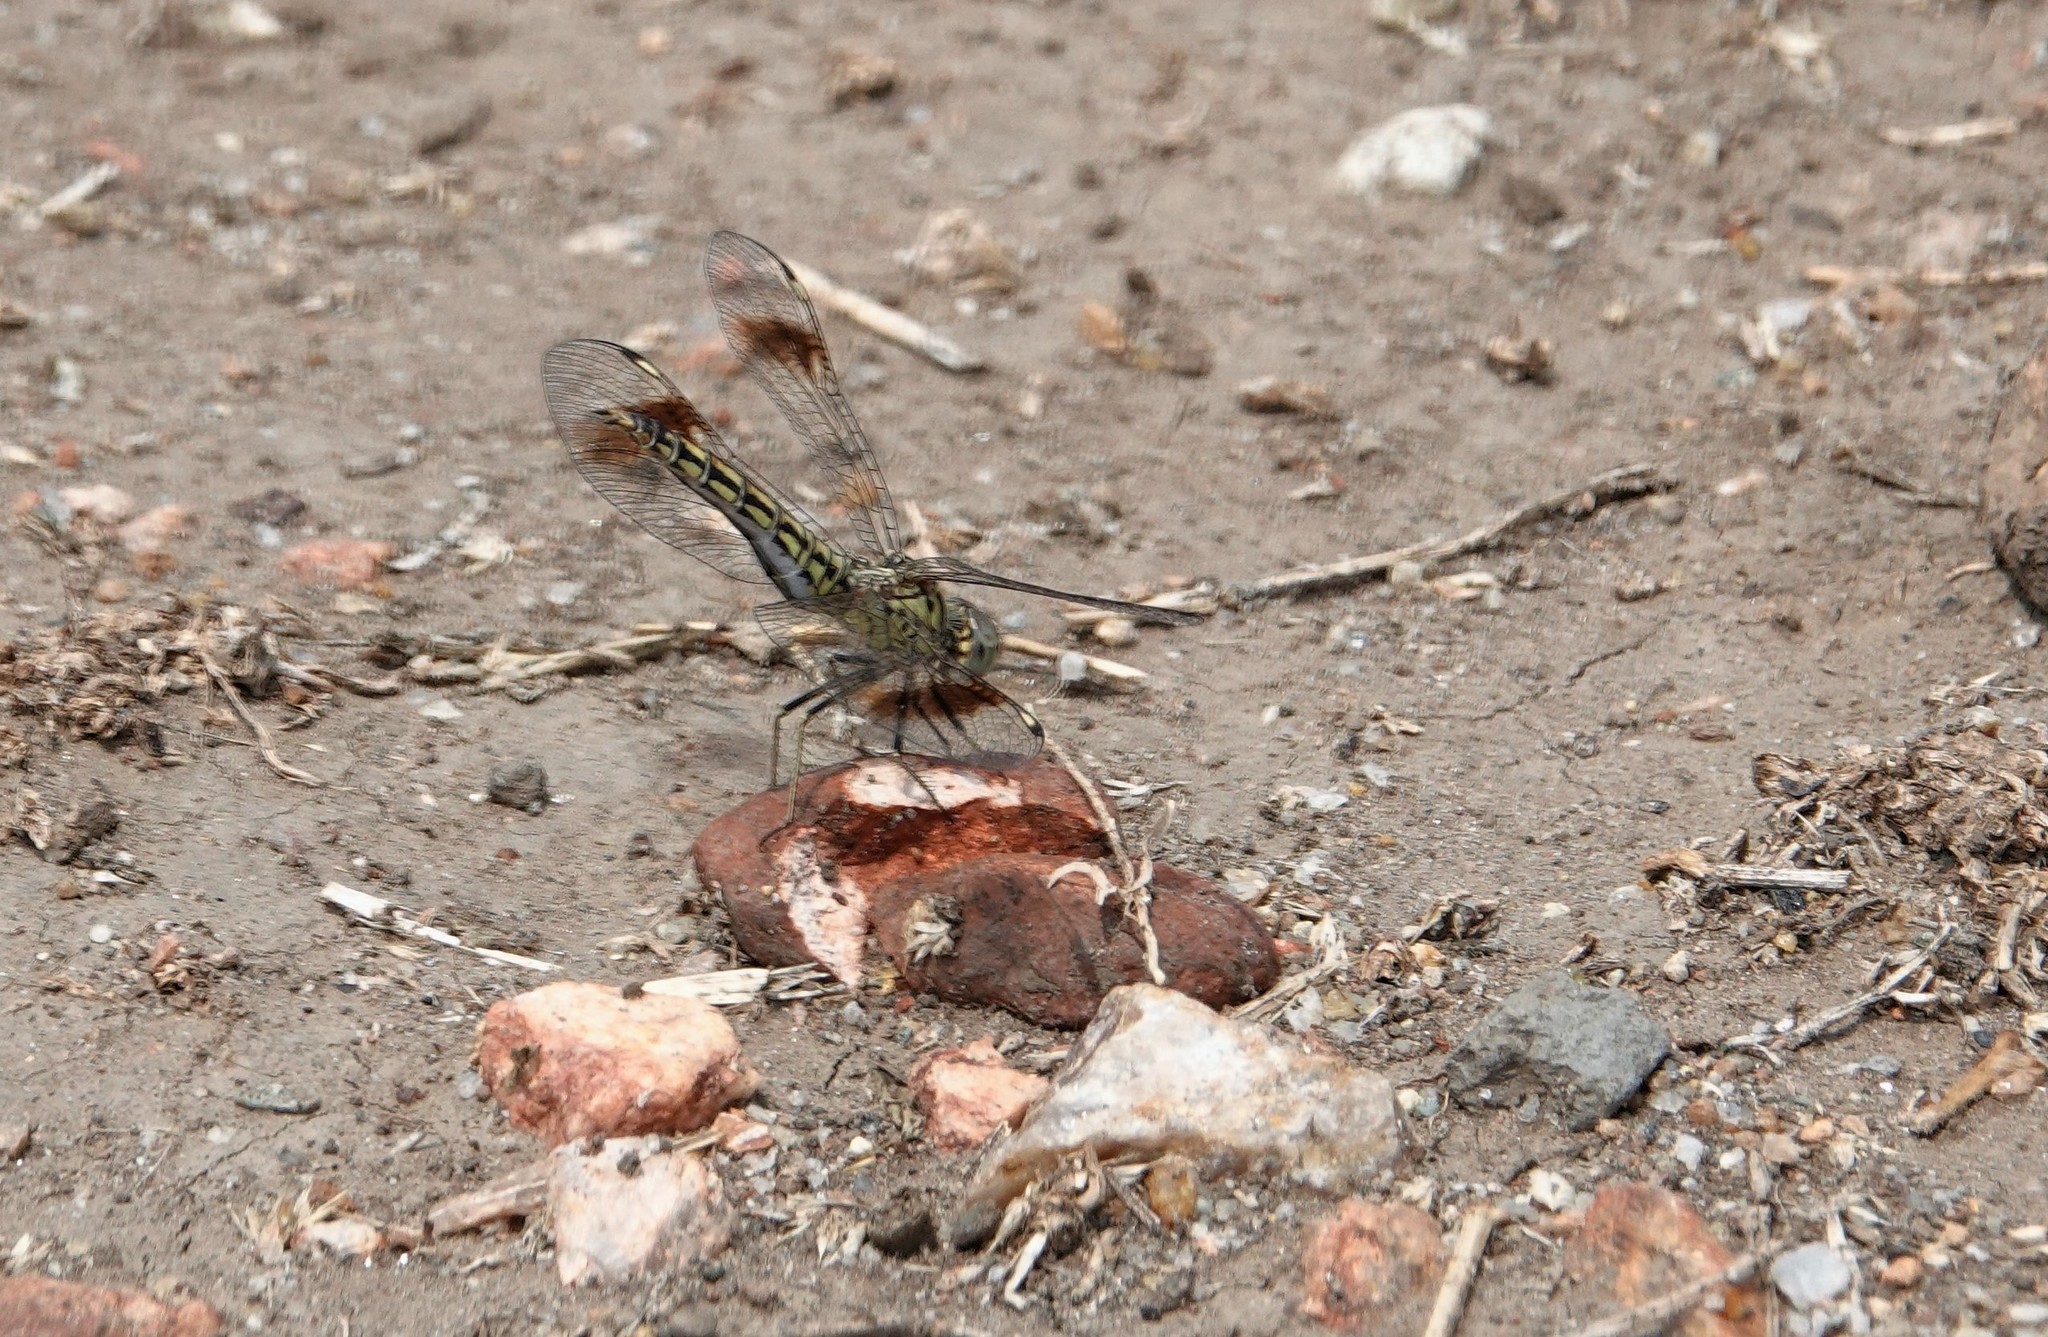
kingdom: Animalia
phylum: Arthropoda
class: Insecta
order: Odonata
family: Libellulidae
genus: Brachythemis
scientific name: Brachythemis leucosticta
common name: Banded groundling
